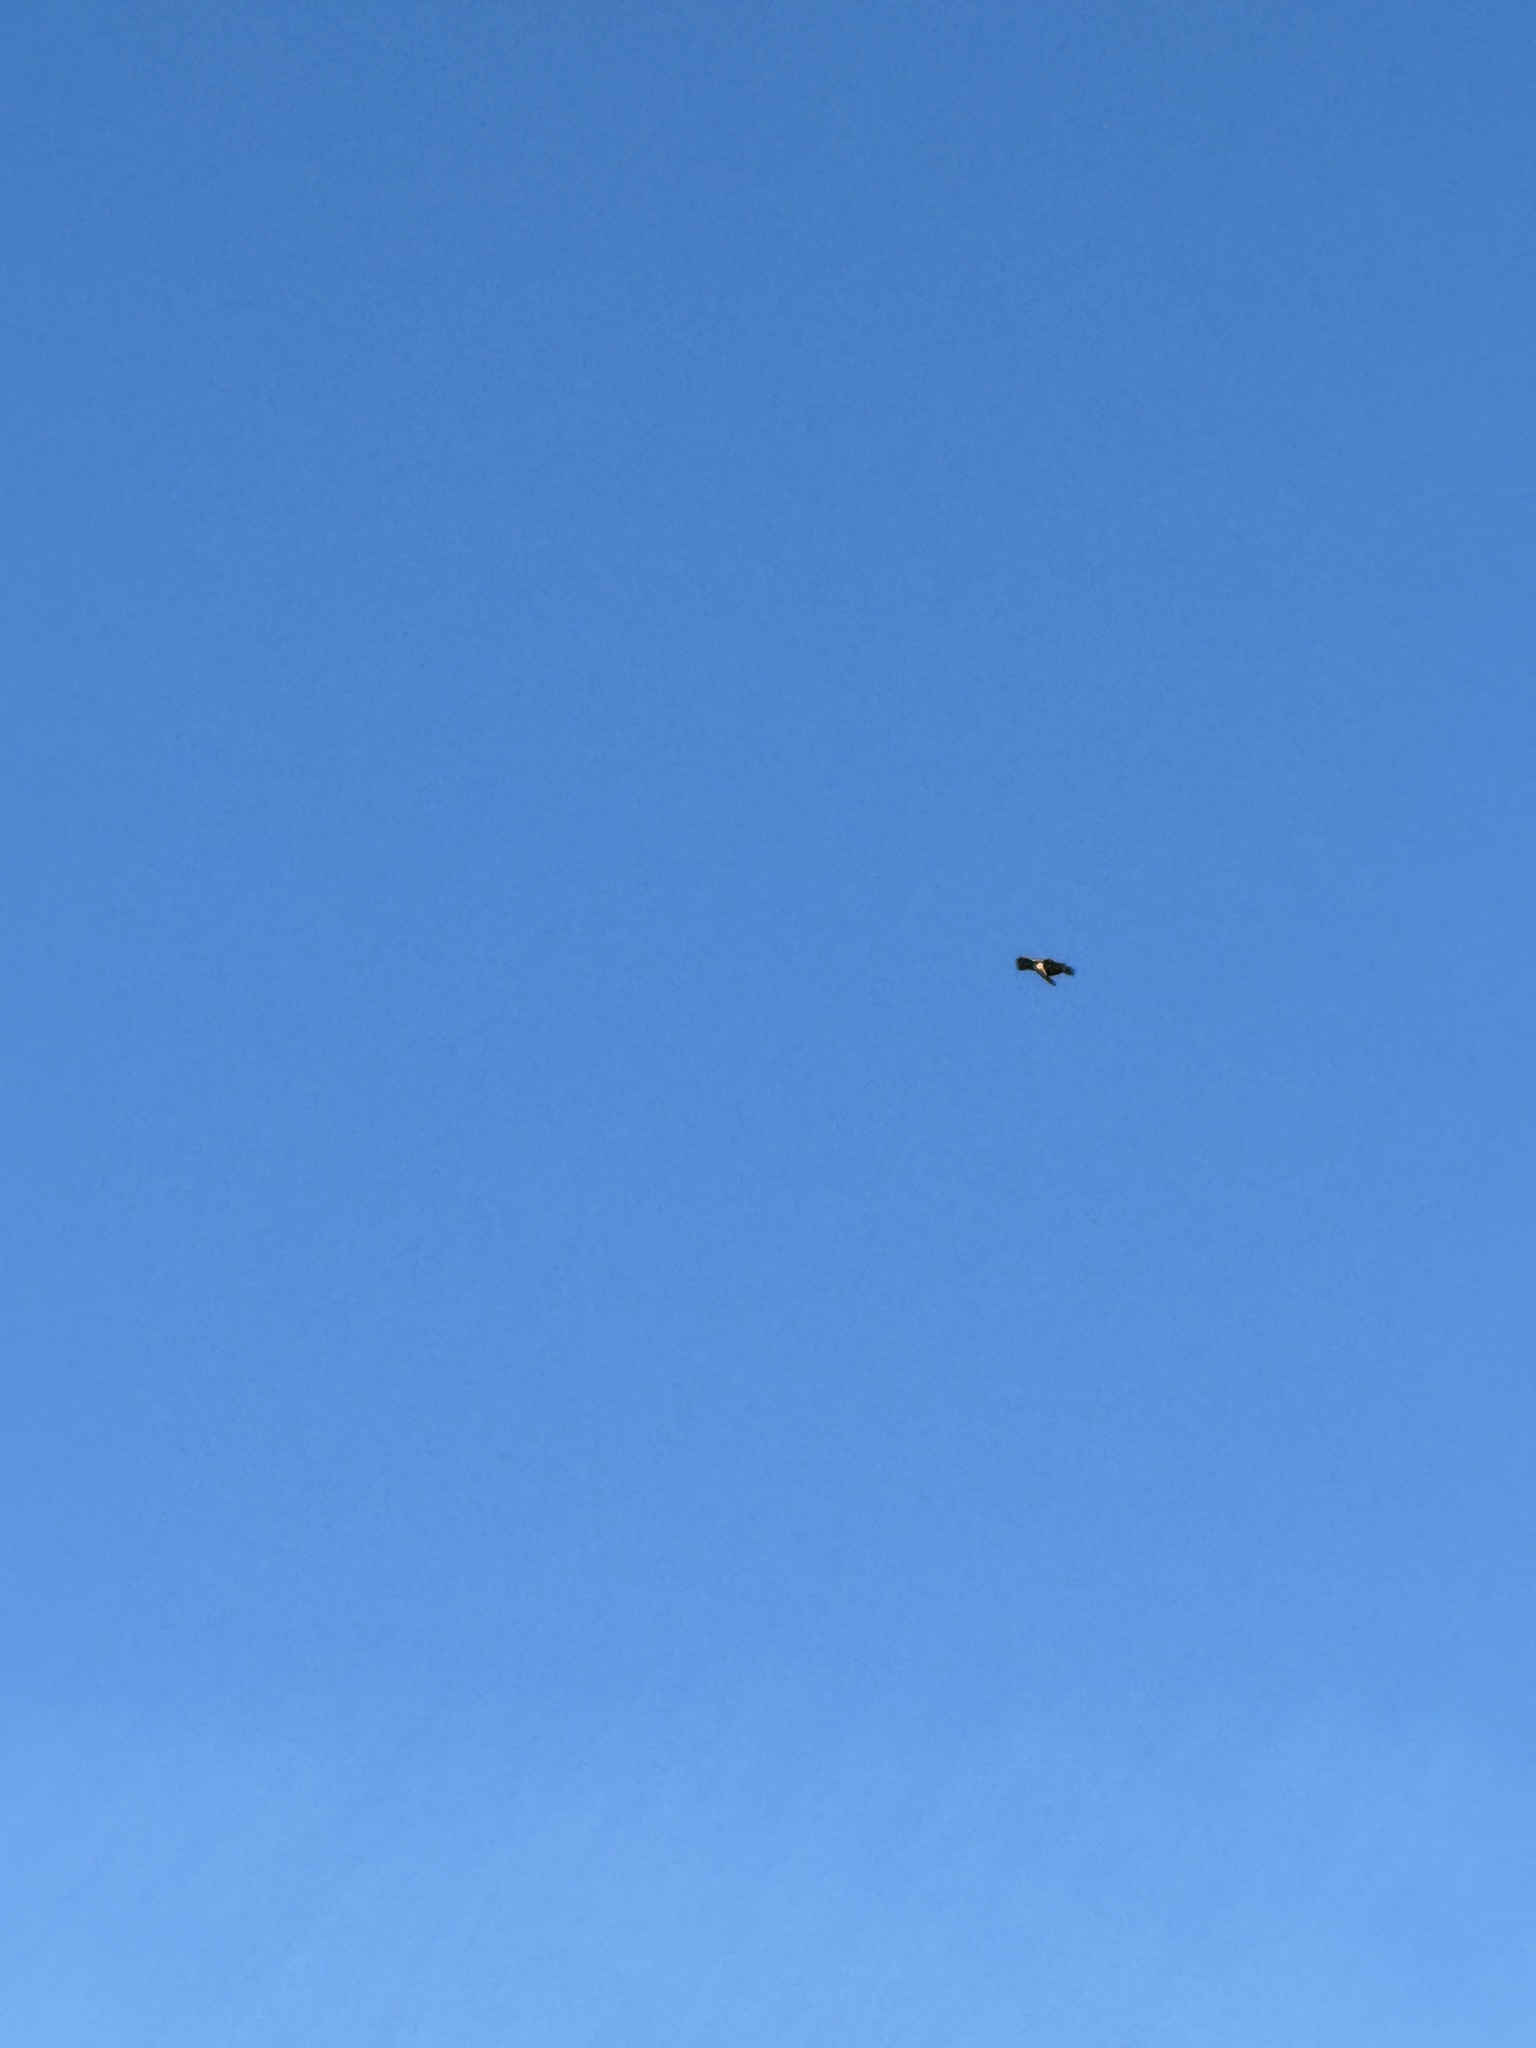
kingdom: Animalia
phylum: Chordata
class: Aves
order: Accipitriformes
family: Accipitridae
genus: Buteo
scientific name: Buteo jamaicensis
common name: Red-tailed hawk
